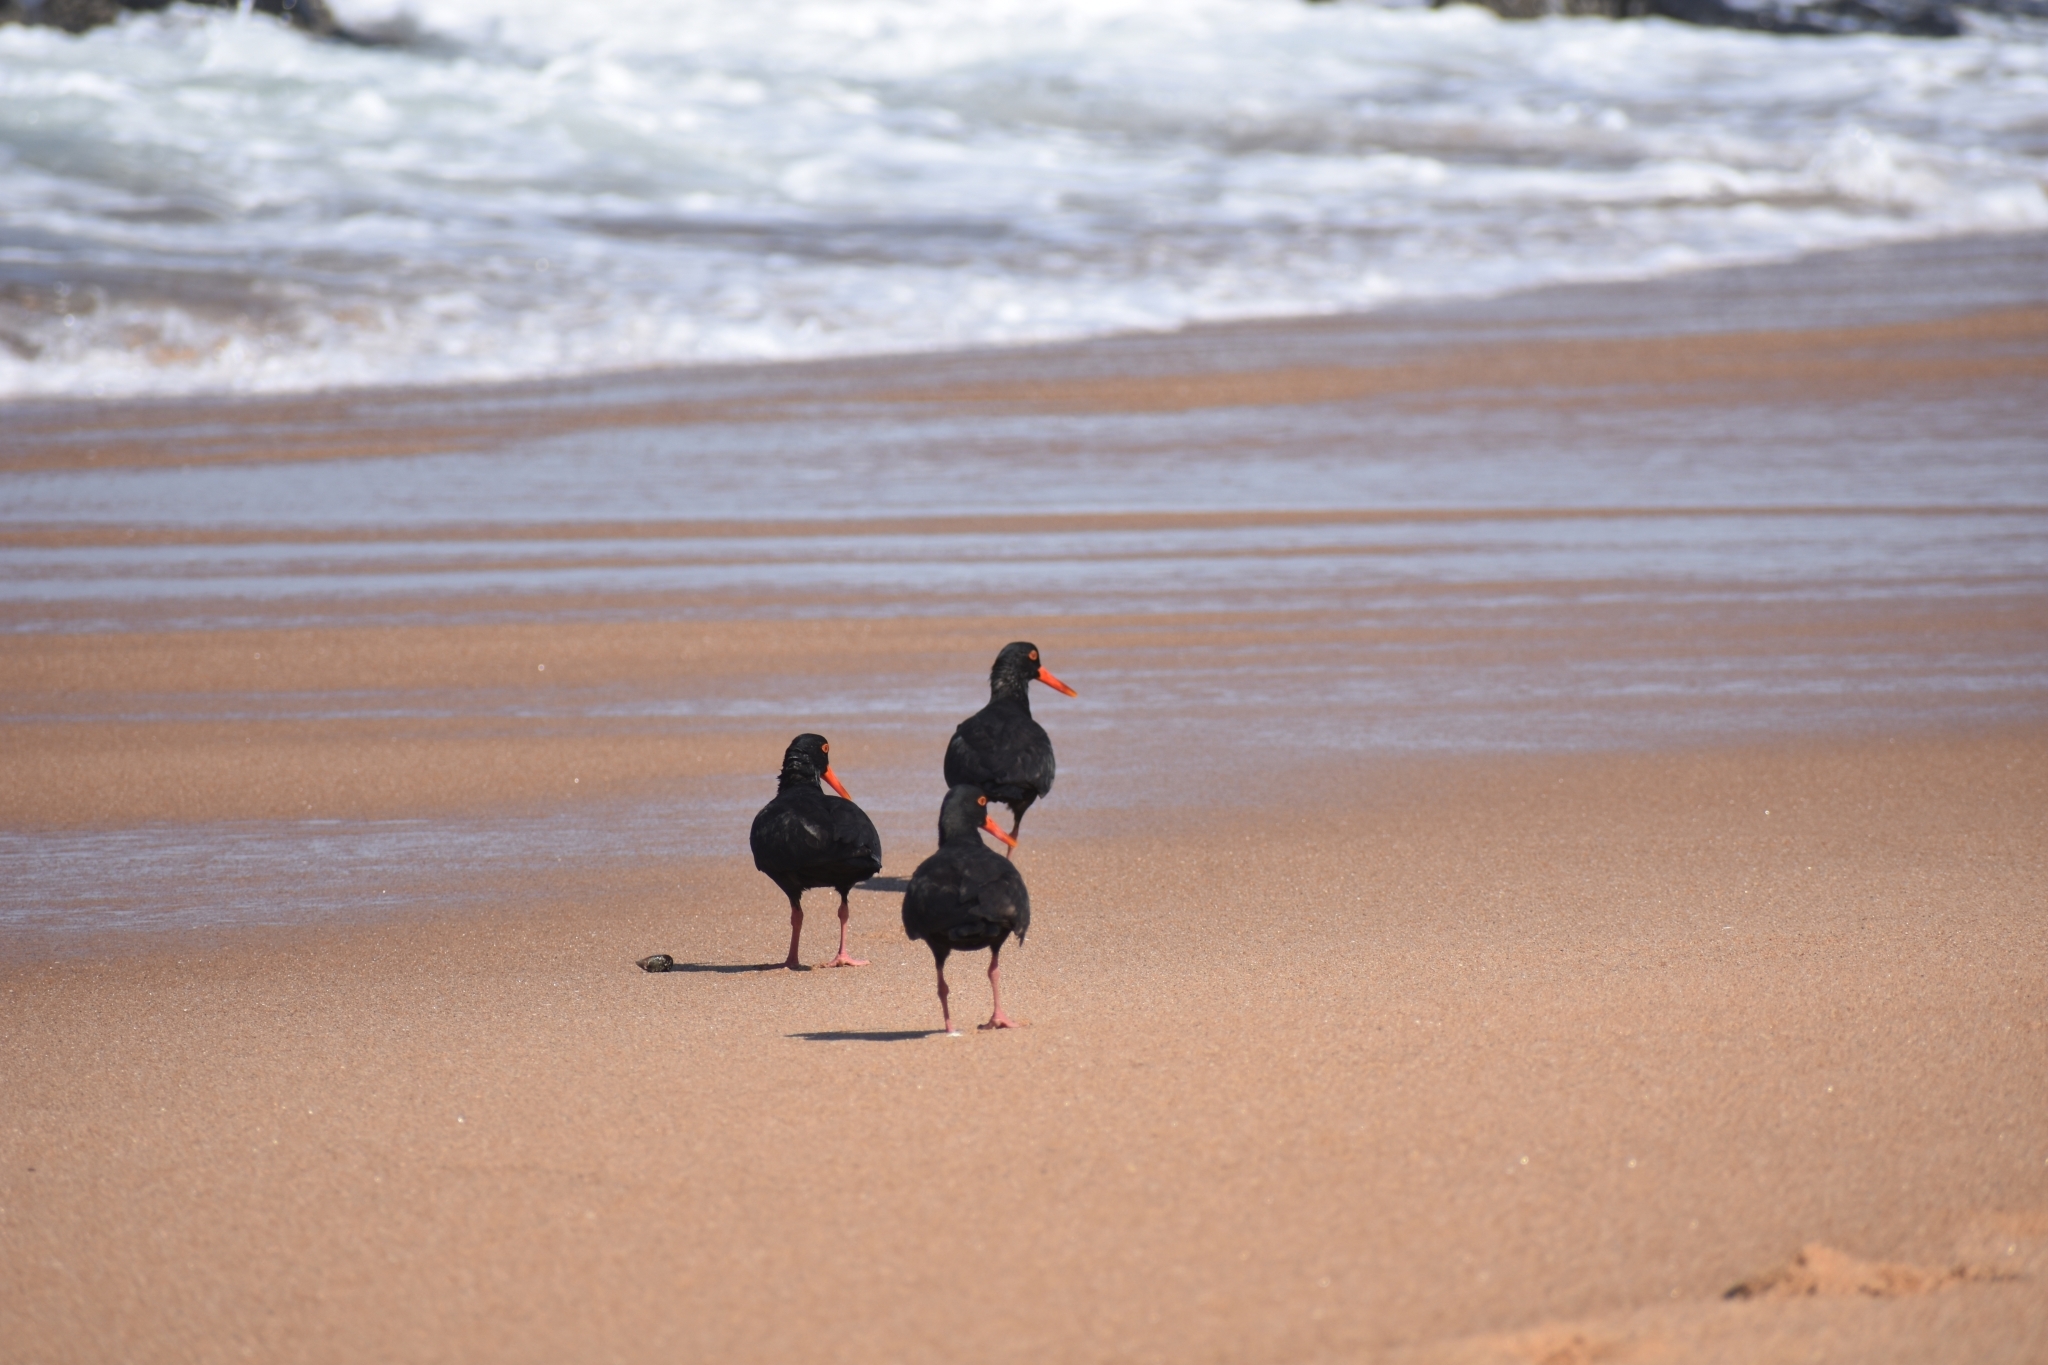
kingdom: Animalia
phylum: Chordata
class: Aves
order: Charadriiformes
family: Haematopodidae
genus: Haematopus
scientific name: Haematopus moquini
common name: African oystercatcher
